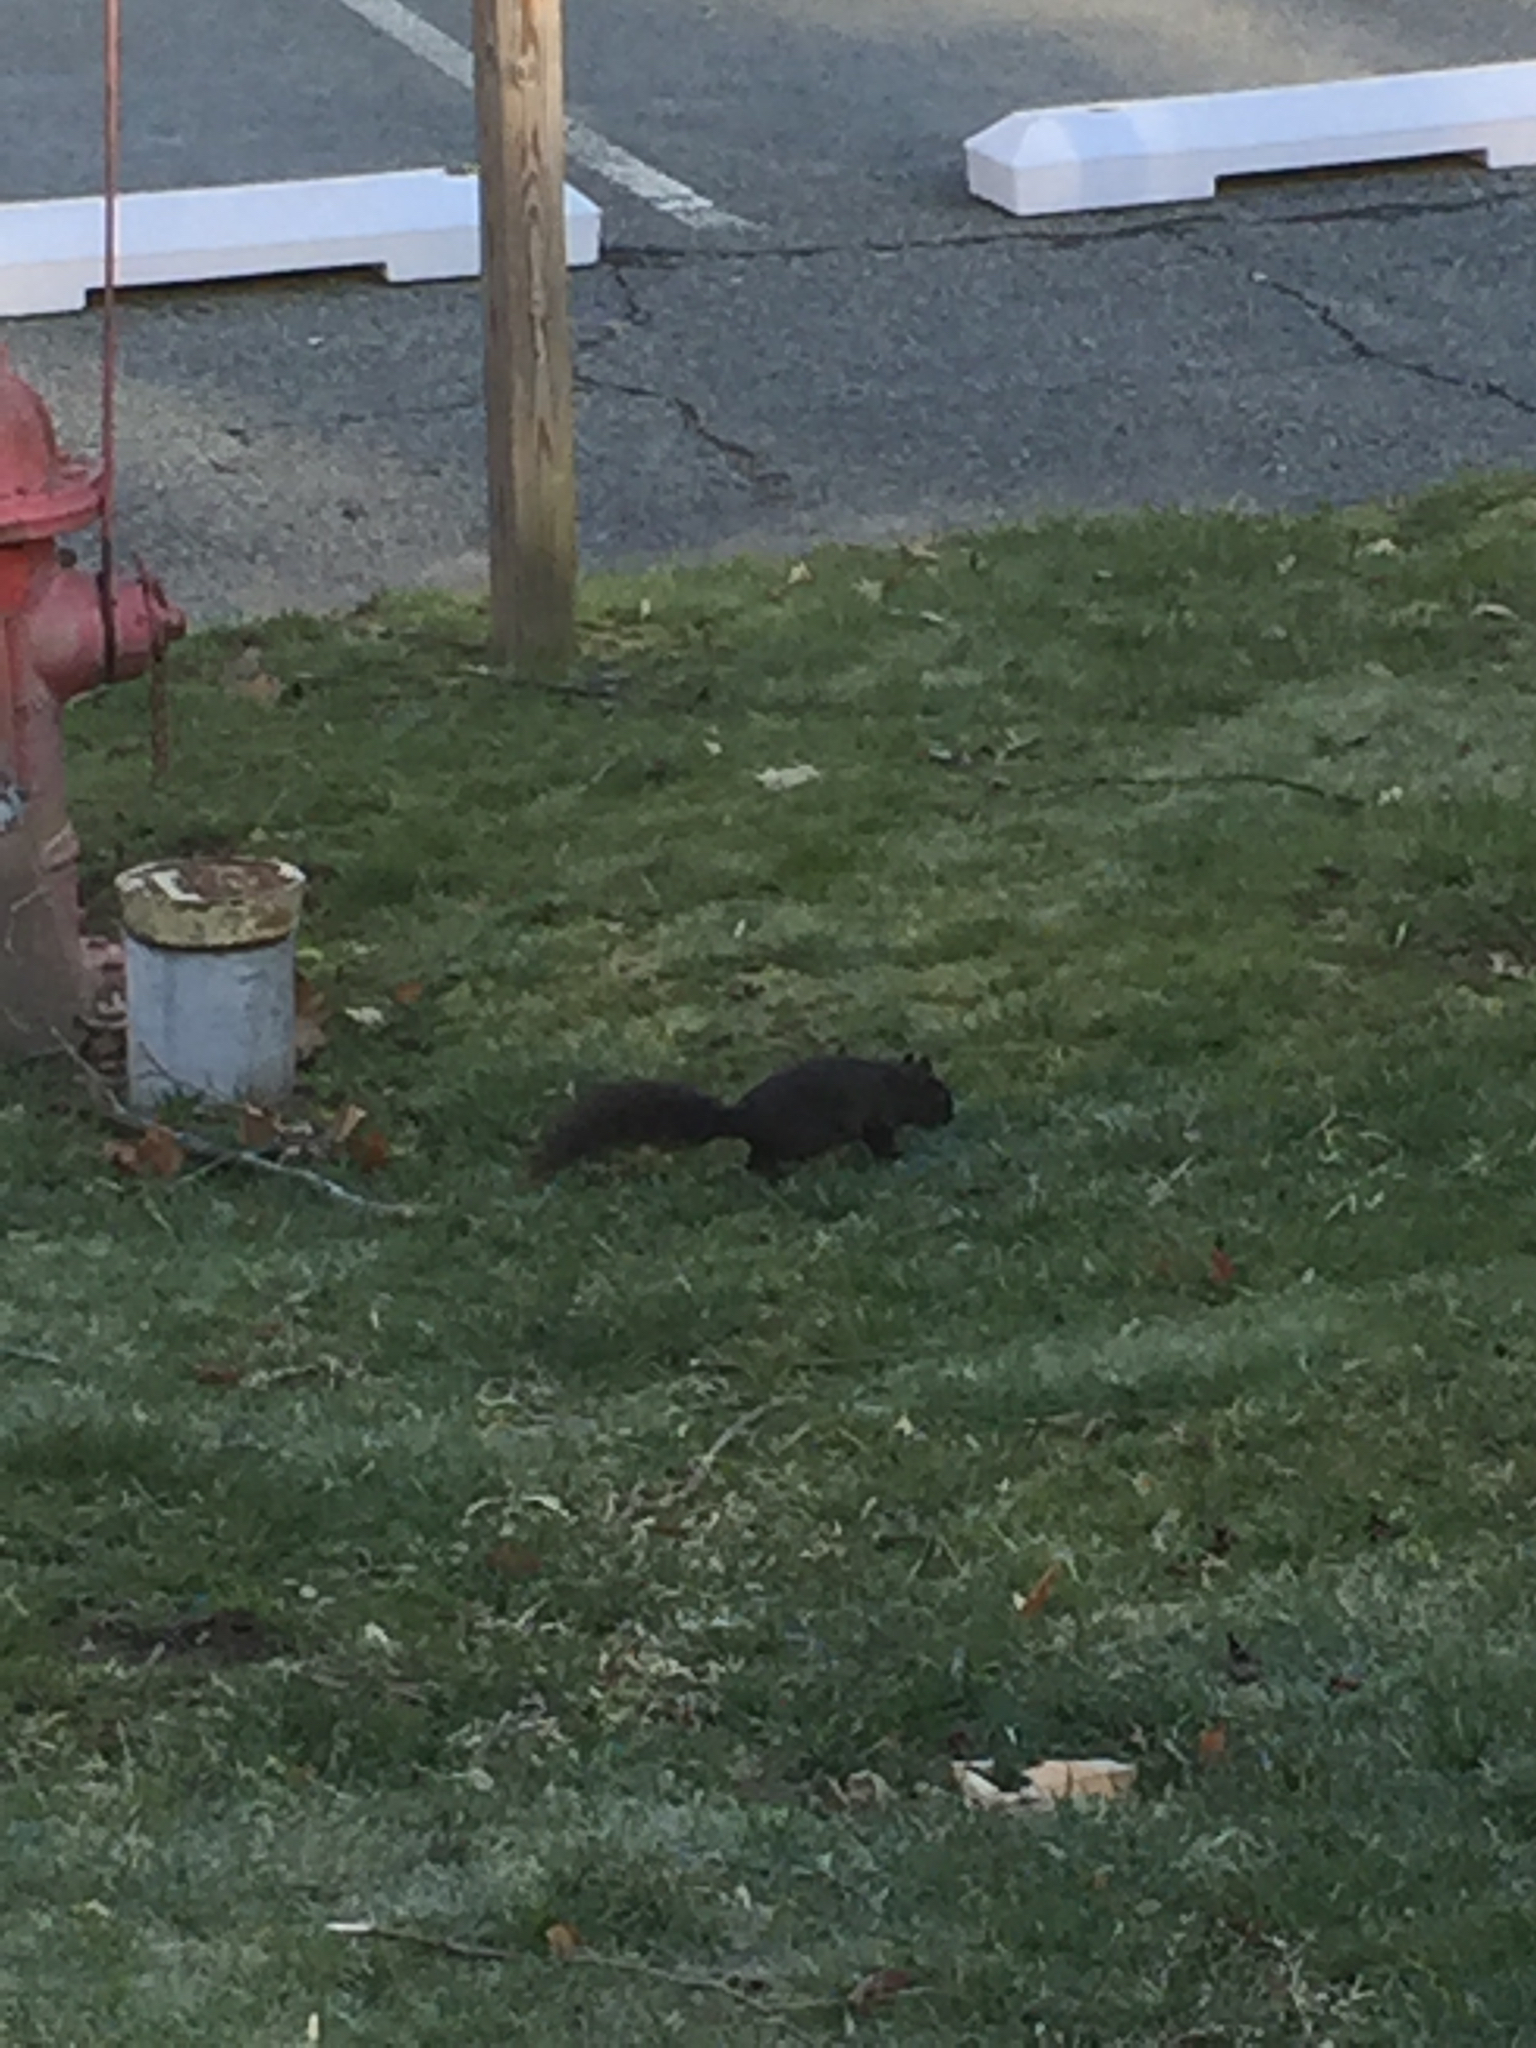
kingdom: Animalia
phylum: Chordata
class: Mammalia
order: Rodentia
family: Sciuridae
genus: Sciurus
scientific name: Sciurus carolinensis
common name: Eastern gray squirrel
